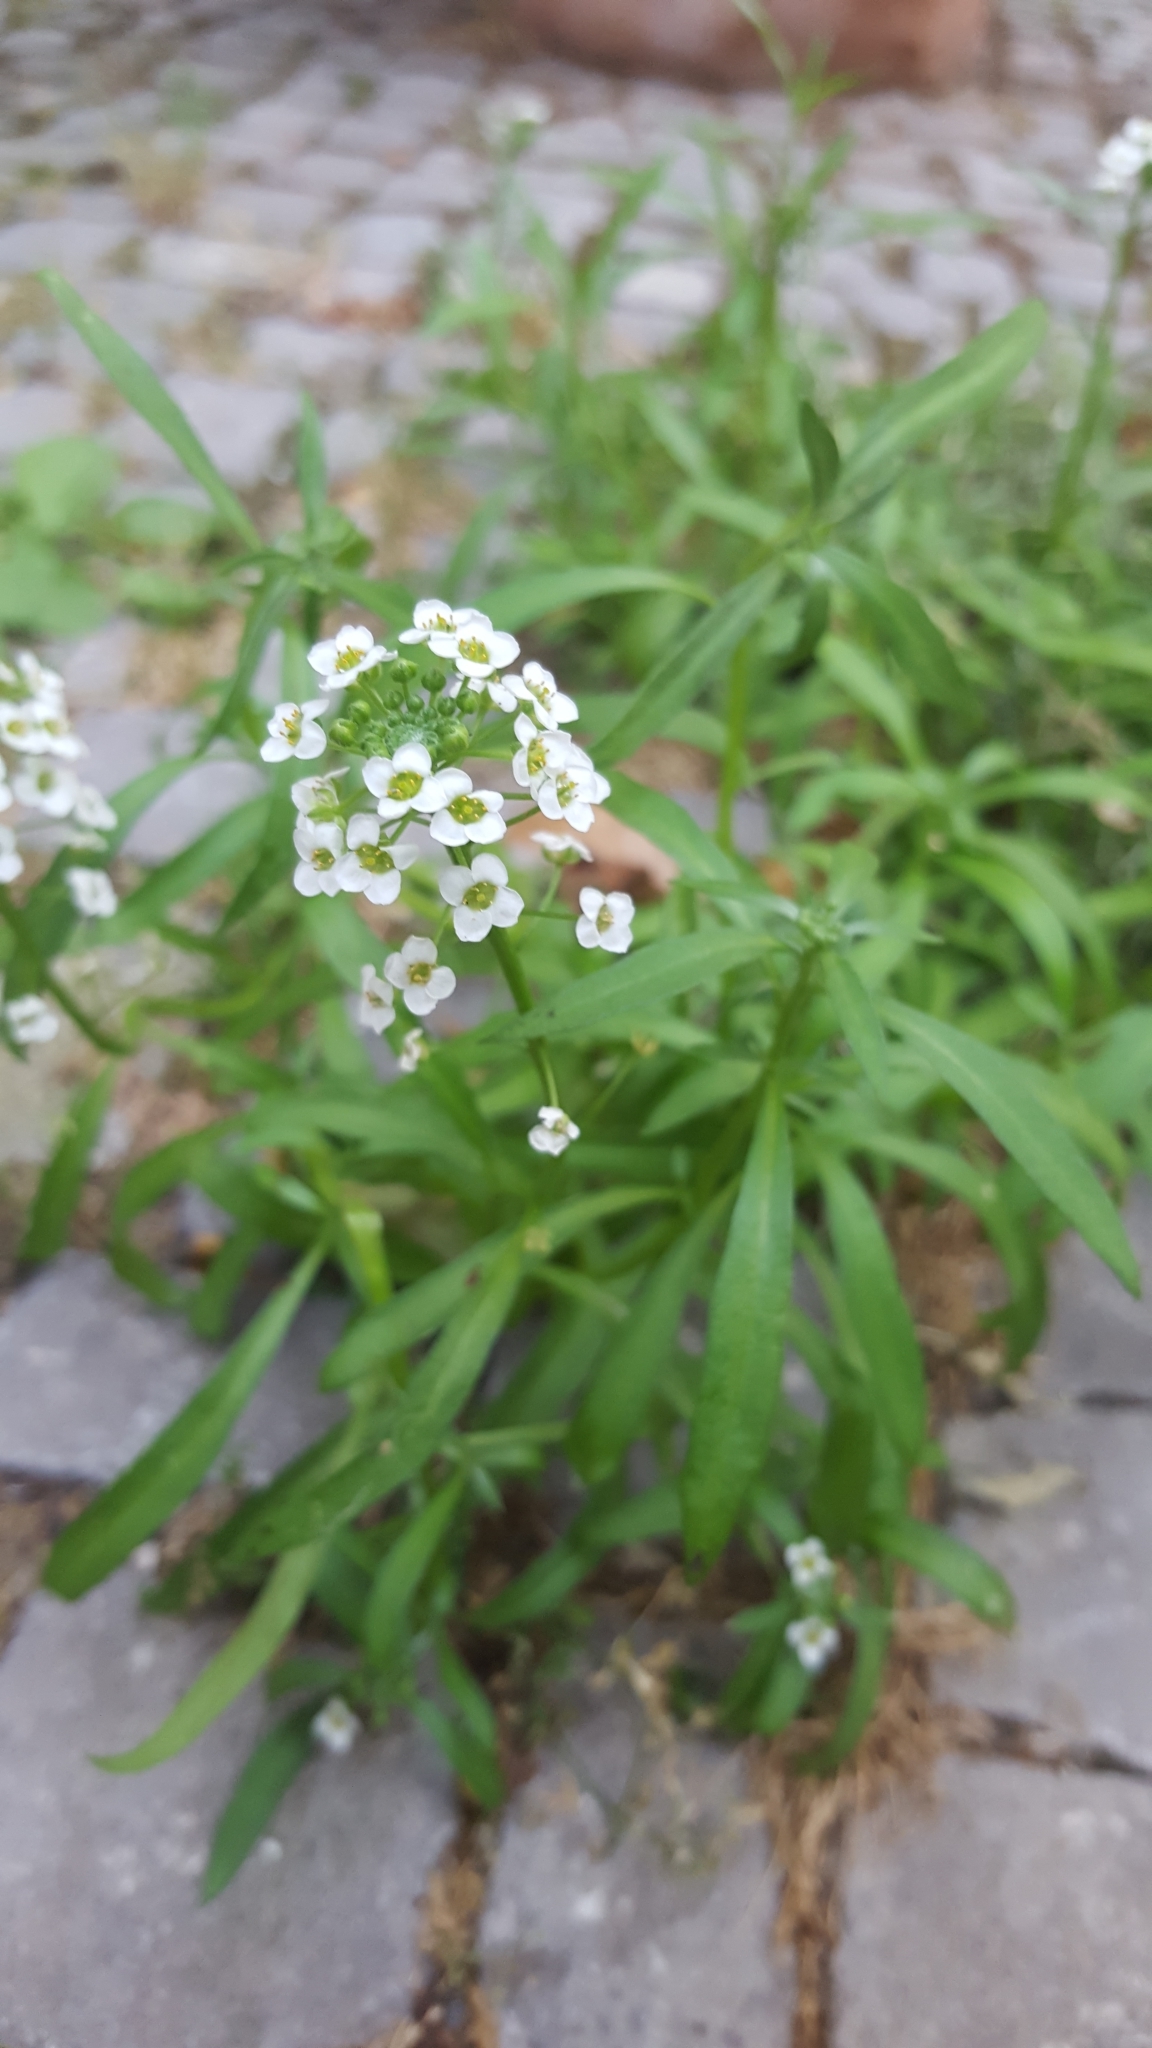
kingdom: Plantae
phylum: Tracheophyta
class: Magnoliopsida
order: Brassicales
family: Brassicaceae
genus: Lobularia
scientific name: Lobularia maritima
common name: Sweet alison
